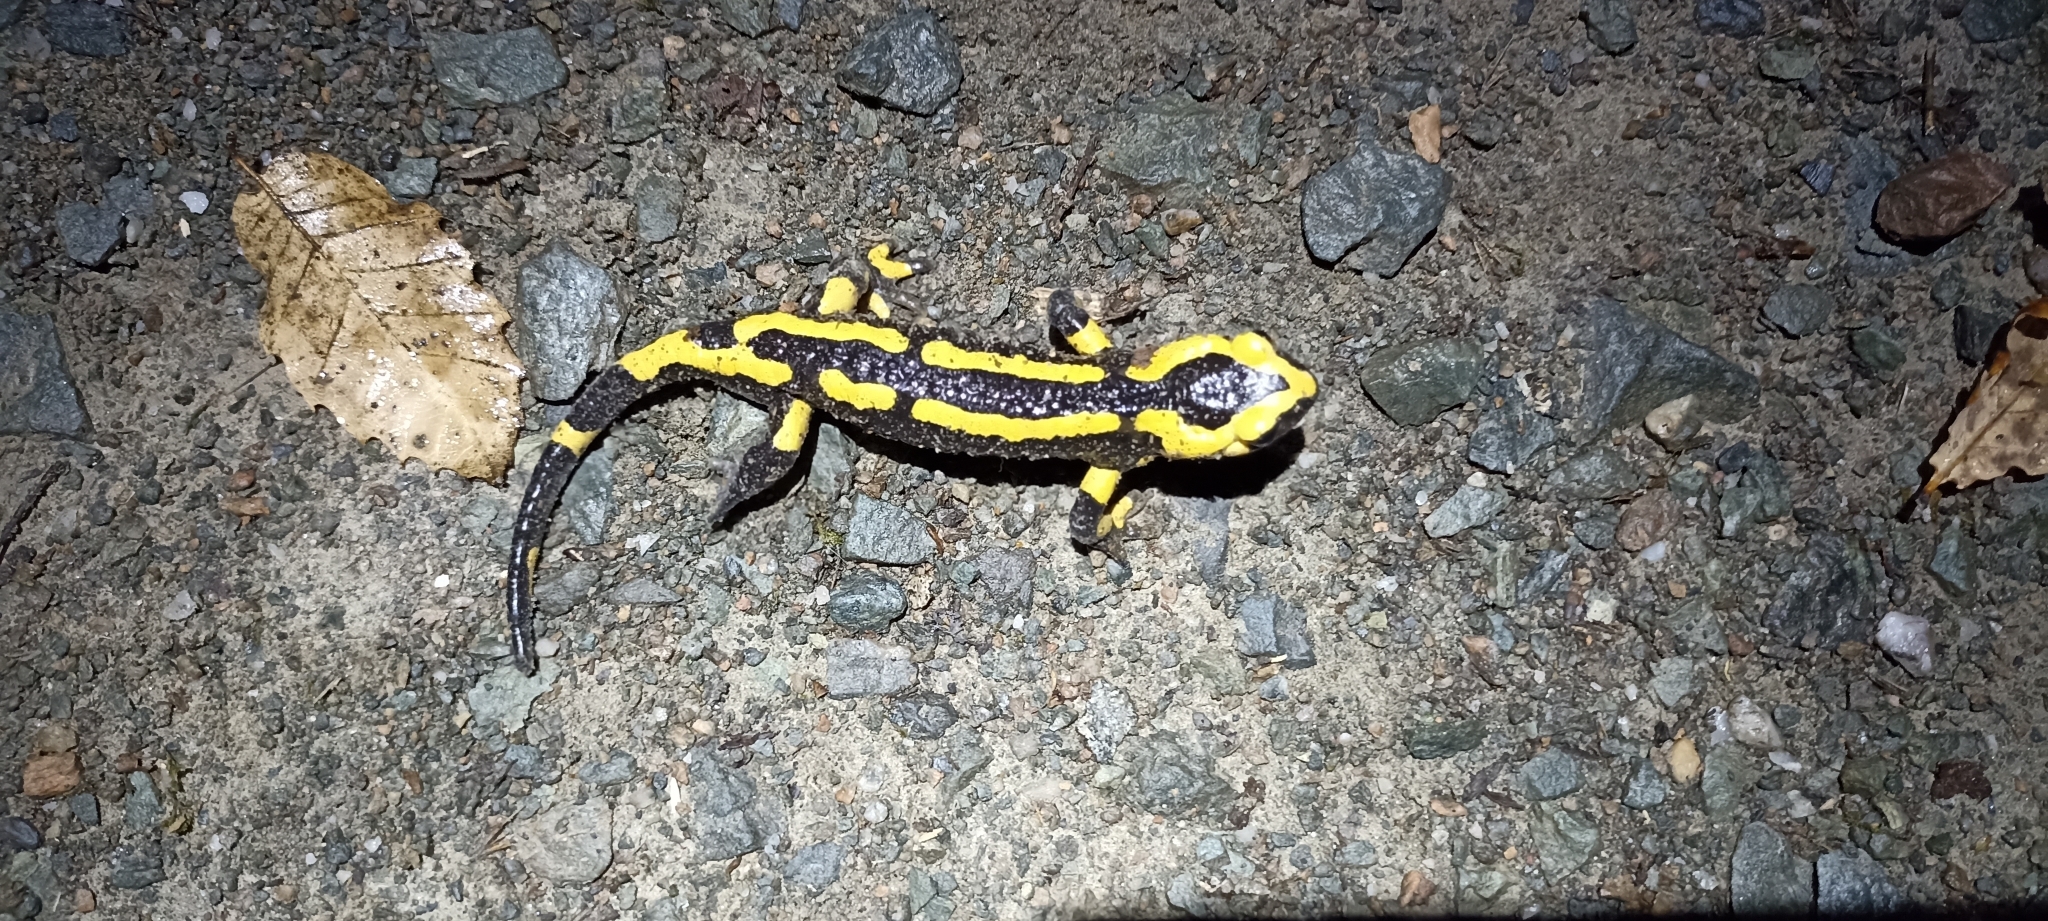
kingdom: Animalia
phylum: Chordata
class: Amphibia
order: Caudata
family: Salamandridae
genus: Salamandra
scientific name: Salamandra salamandra
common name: Fire salamander
